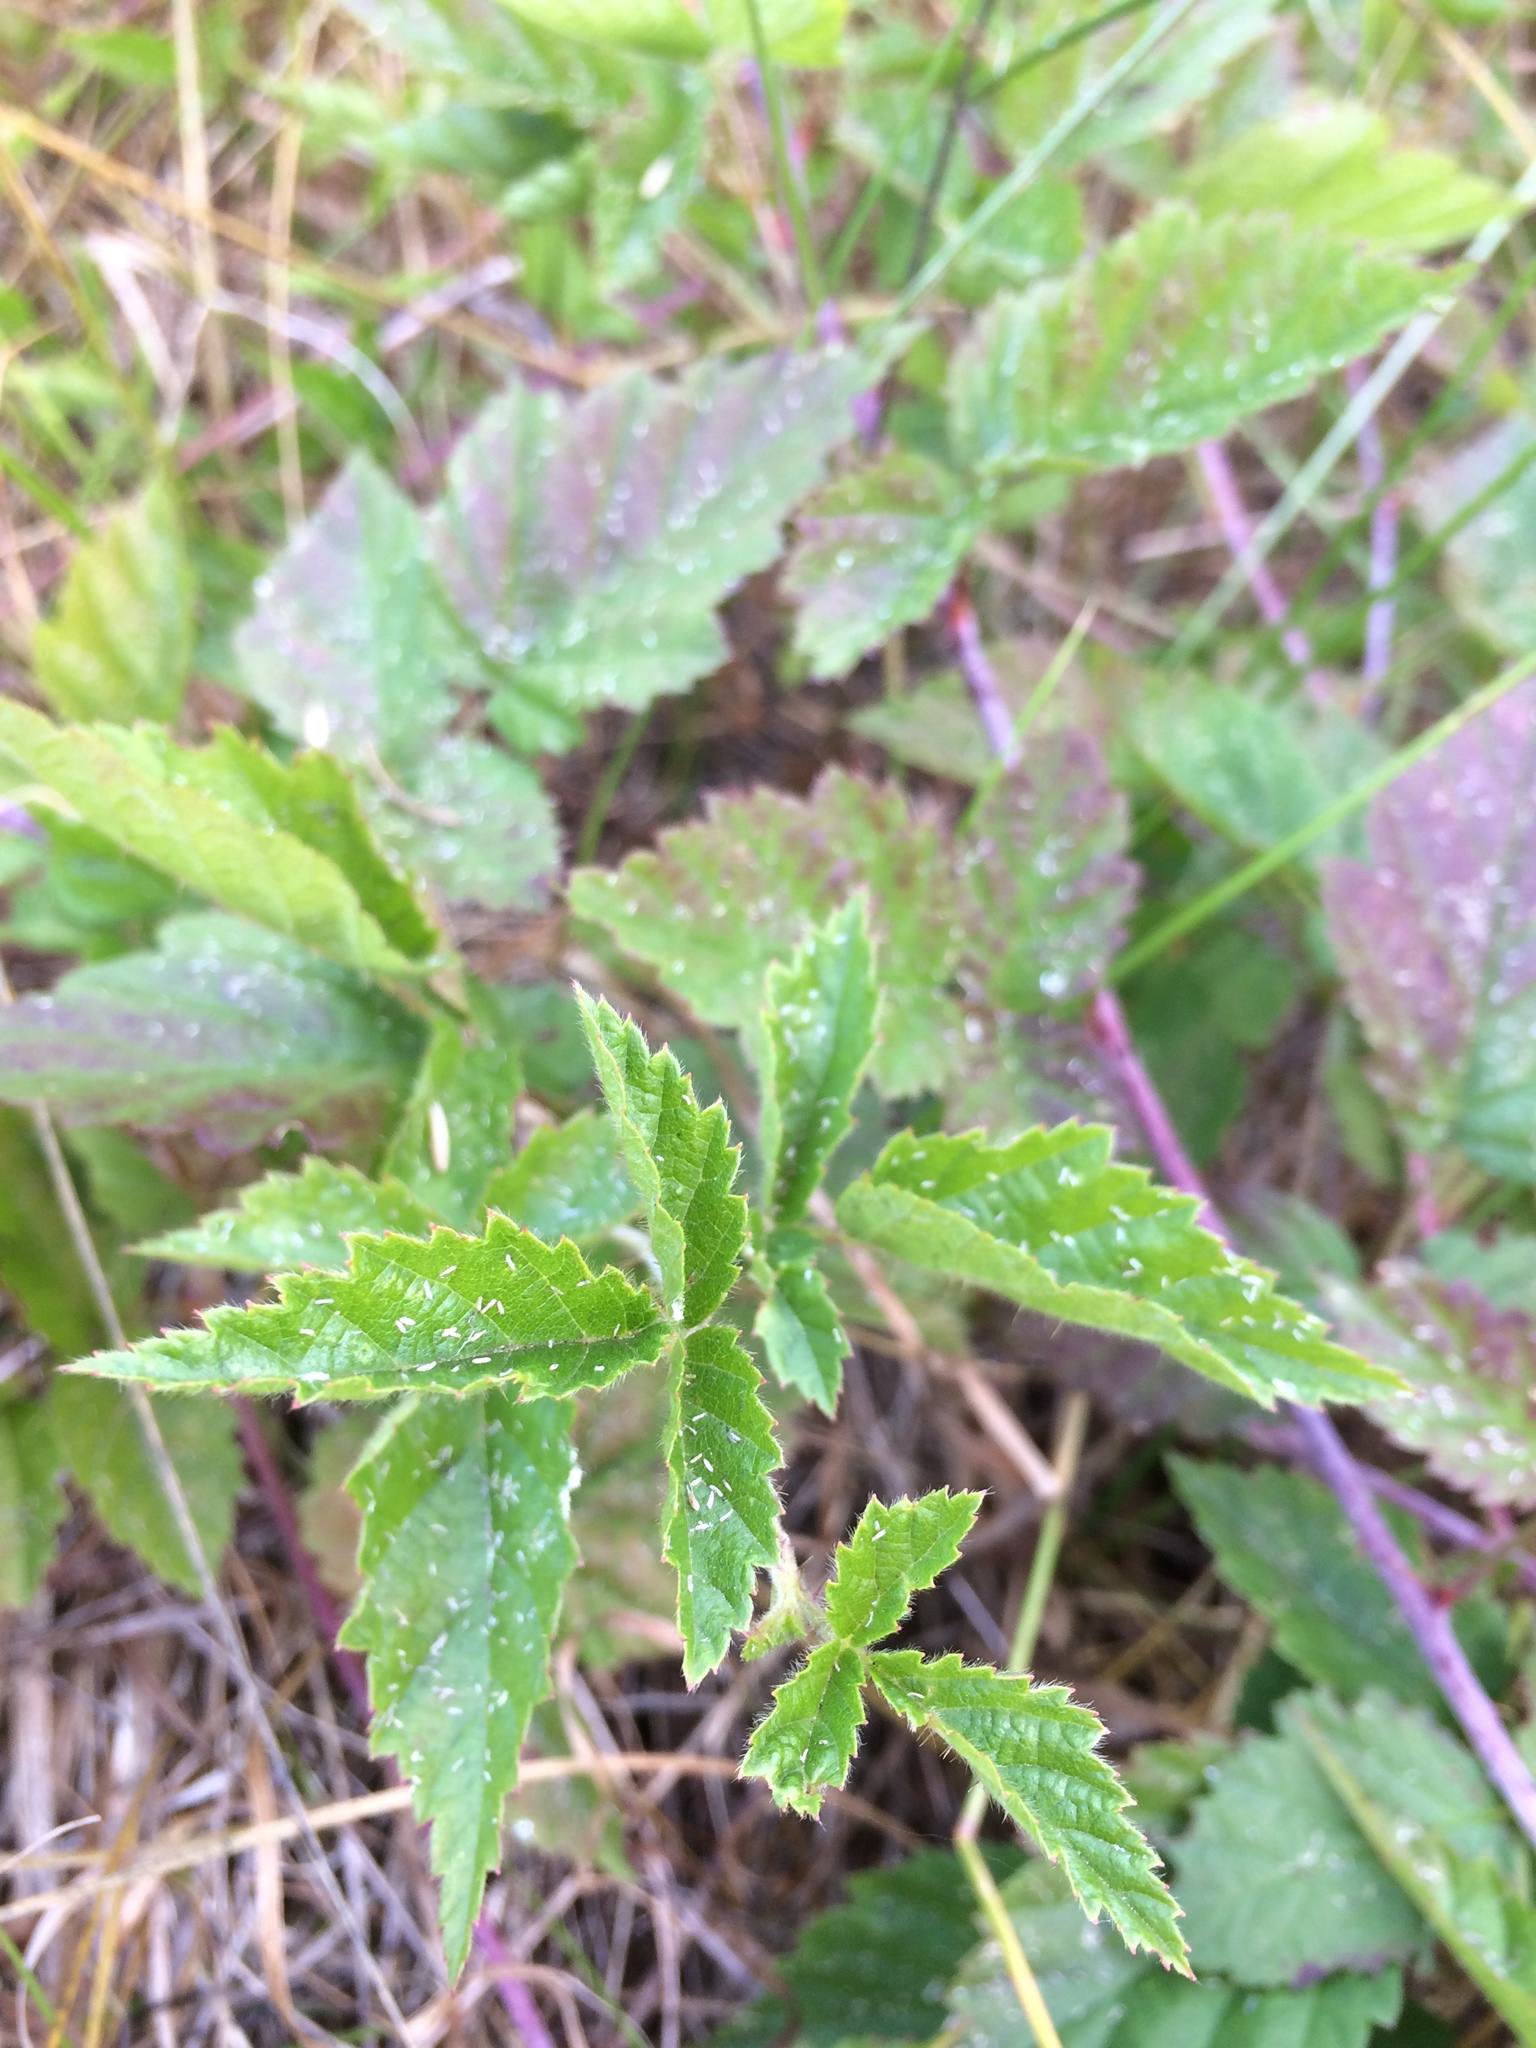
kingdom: Plantae
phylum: Tracheophyta
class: Magnoliopsida
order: Rosales
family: Rosaceae
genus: Rubus
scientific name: Rubus ursinus
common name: Pacific blackberry
